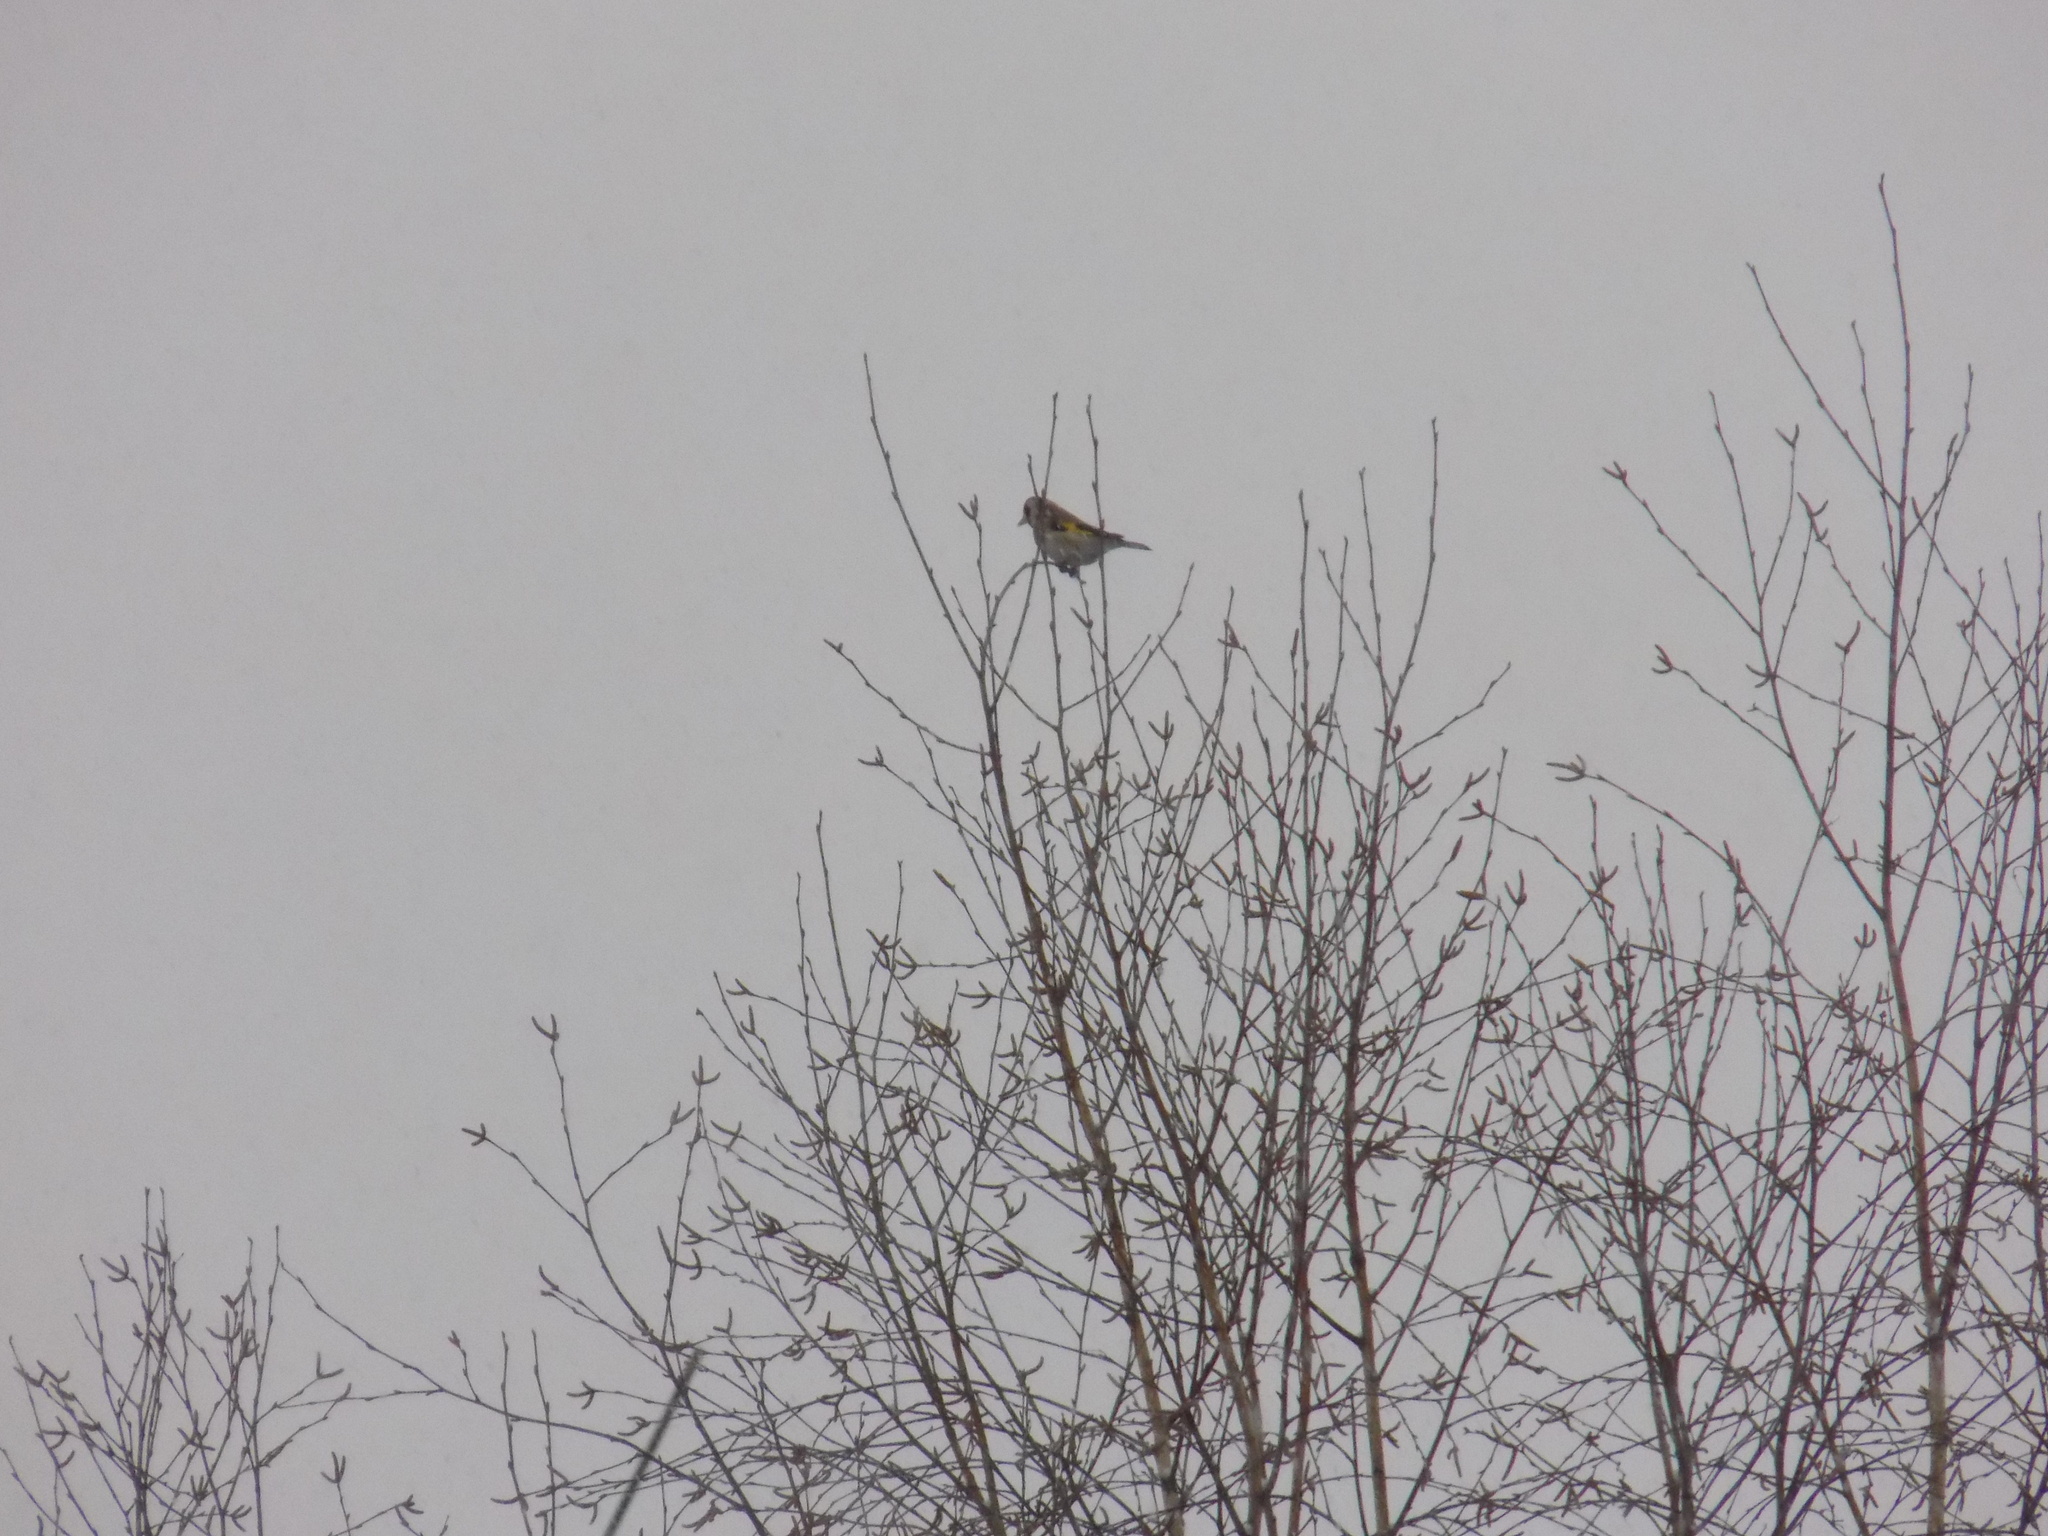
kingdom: Animalia
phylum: Chordata
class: Aves
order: Passeriformes
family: Fringillidae
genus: Carduelis
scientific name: Carduelis carduelis
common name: European goldfinch
